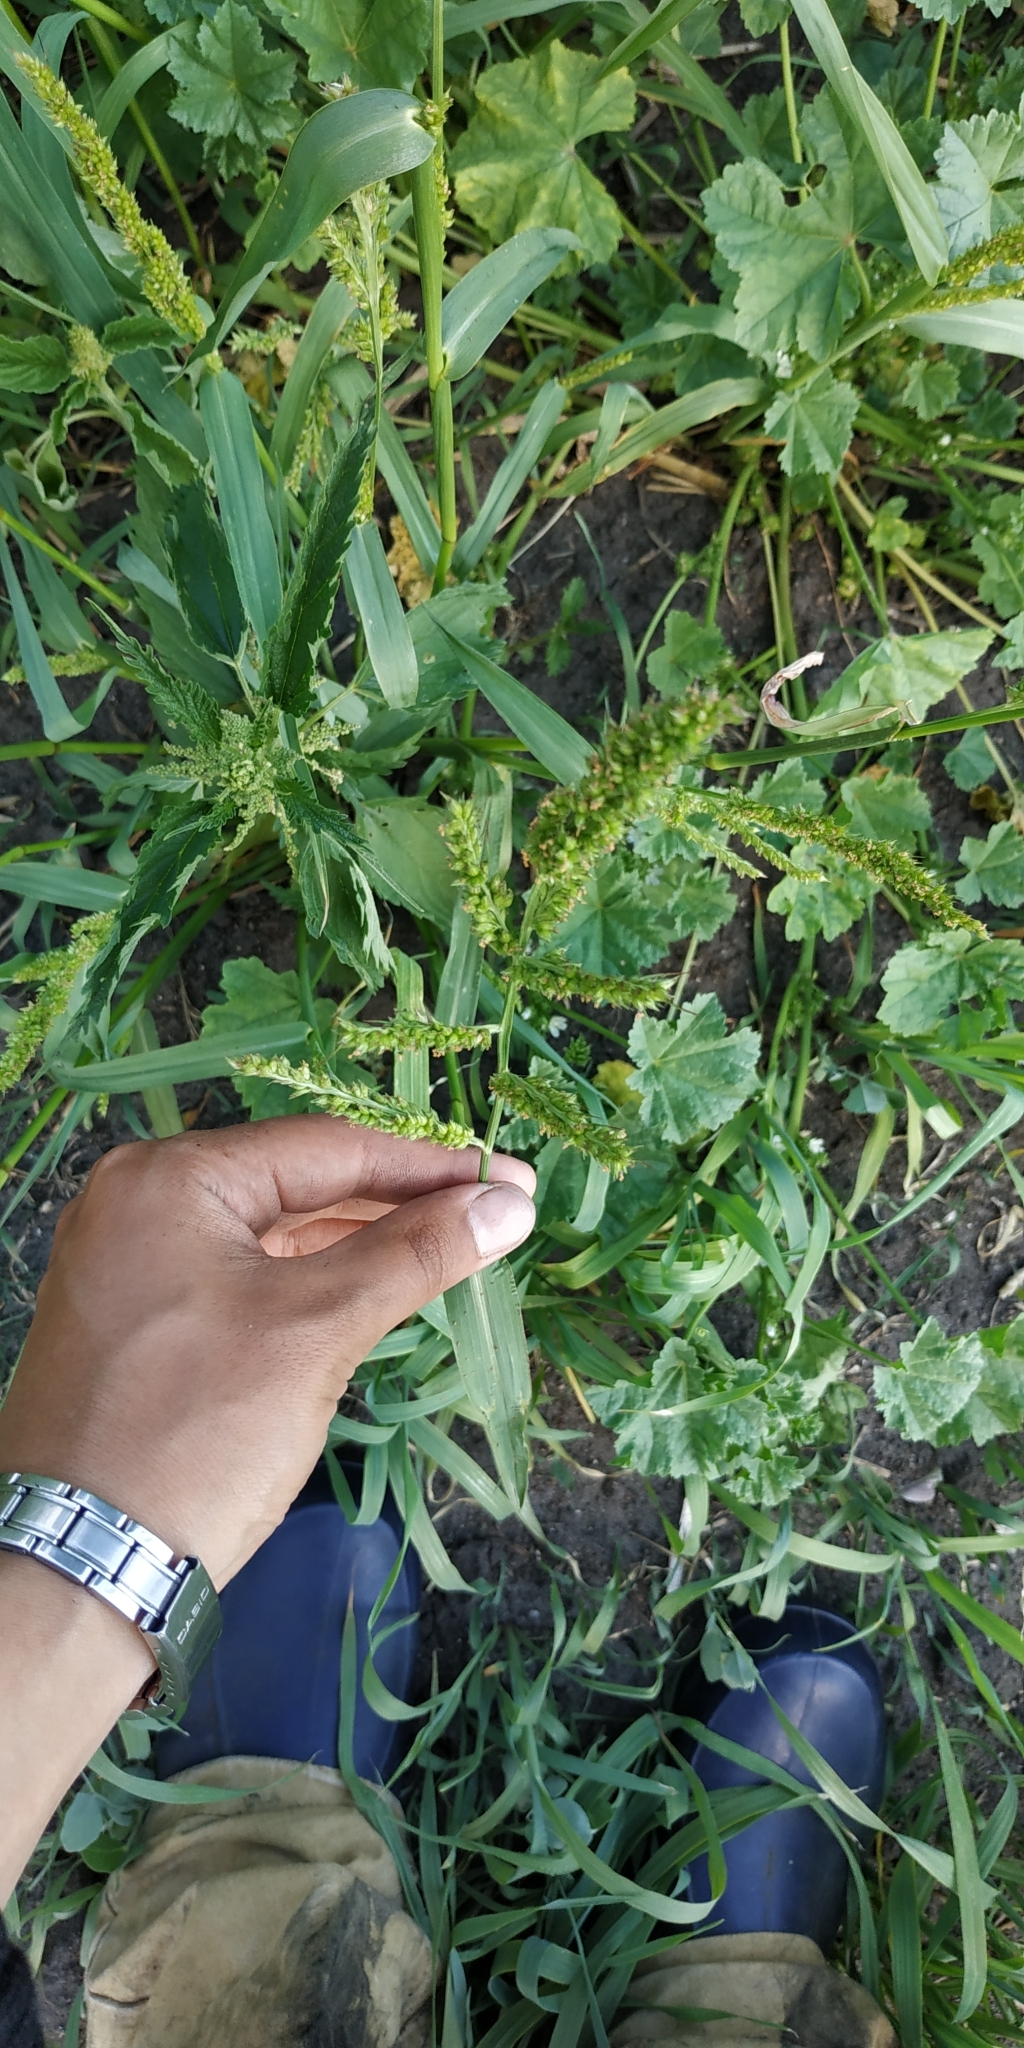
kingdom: Plantae
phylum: Tracheophyta
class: Liliopsida
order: Poales
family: Poaceae
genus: Echinochloa
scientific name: Echinochloa crus-galli
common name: Cockspur
